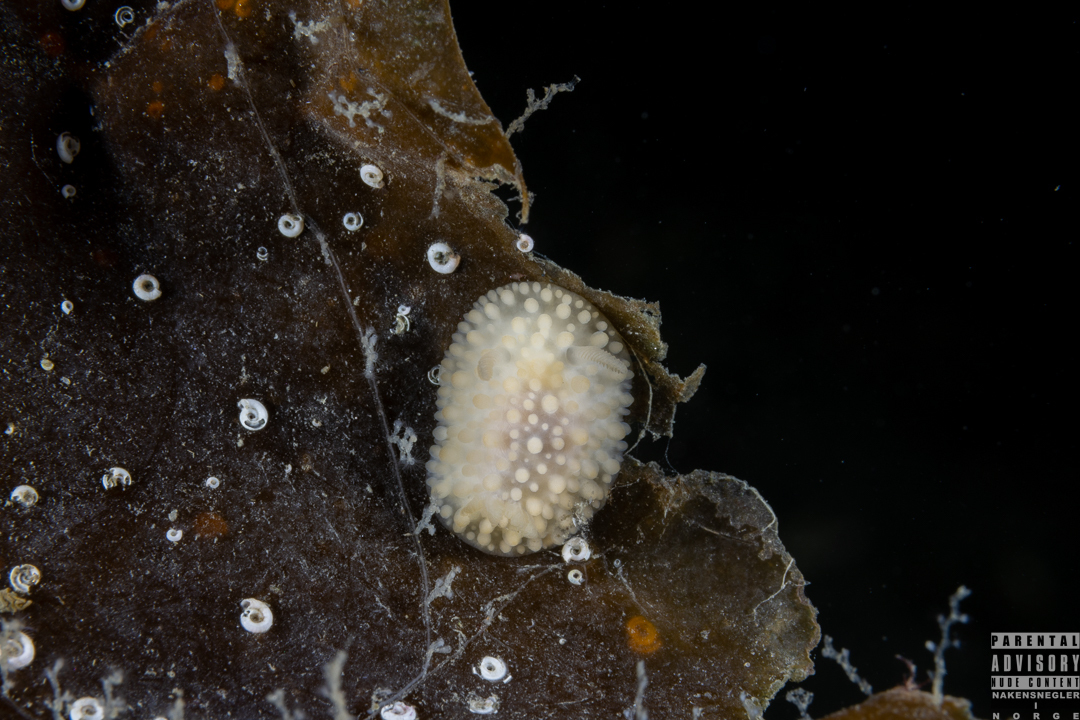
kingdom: Animalia
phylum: Mollusca
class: Gastropoda
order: Nudibranchia
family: Onchidorididae
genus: Adalaria
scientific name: Adalaria proxima
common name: False doris
